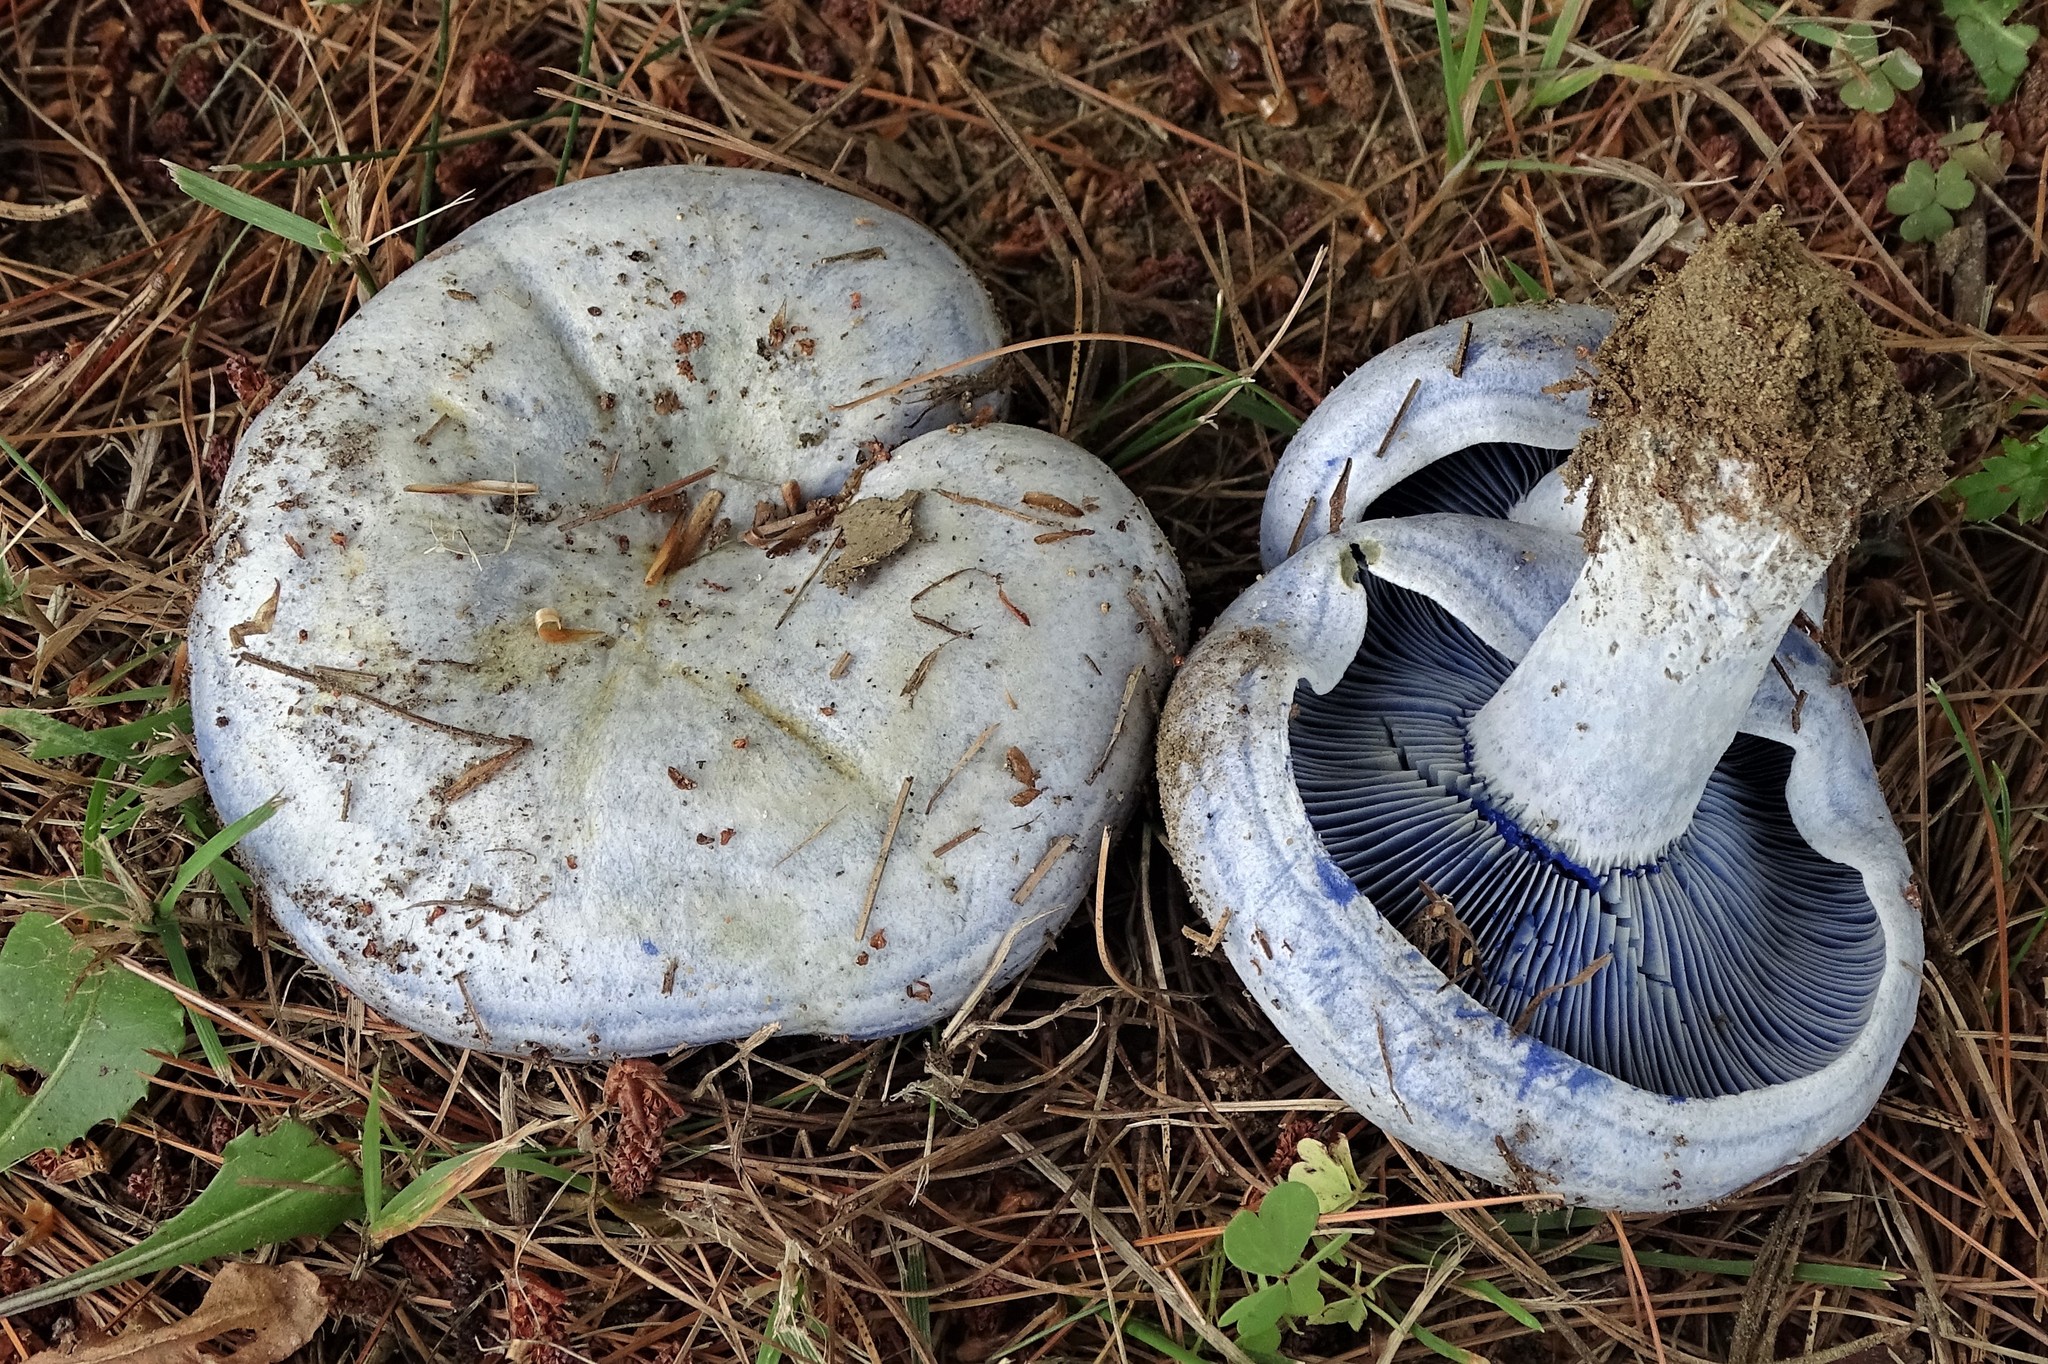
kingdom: Fungi
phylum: Basidiomycota
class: Agaricomycetes
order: Russulales
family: Russulaceae
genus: Lactarius
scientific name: Lactarius indigo
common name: Indigo milk cap
